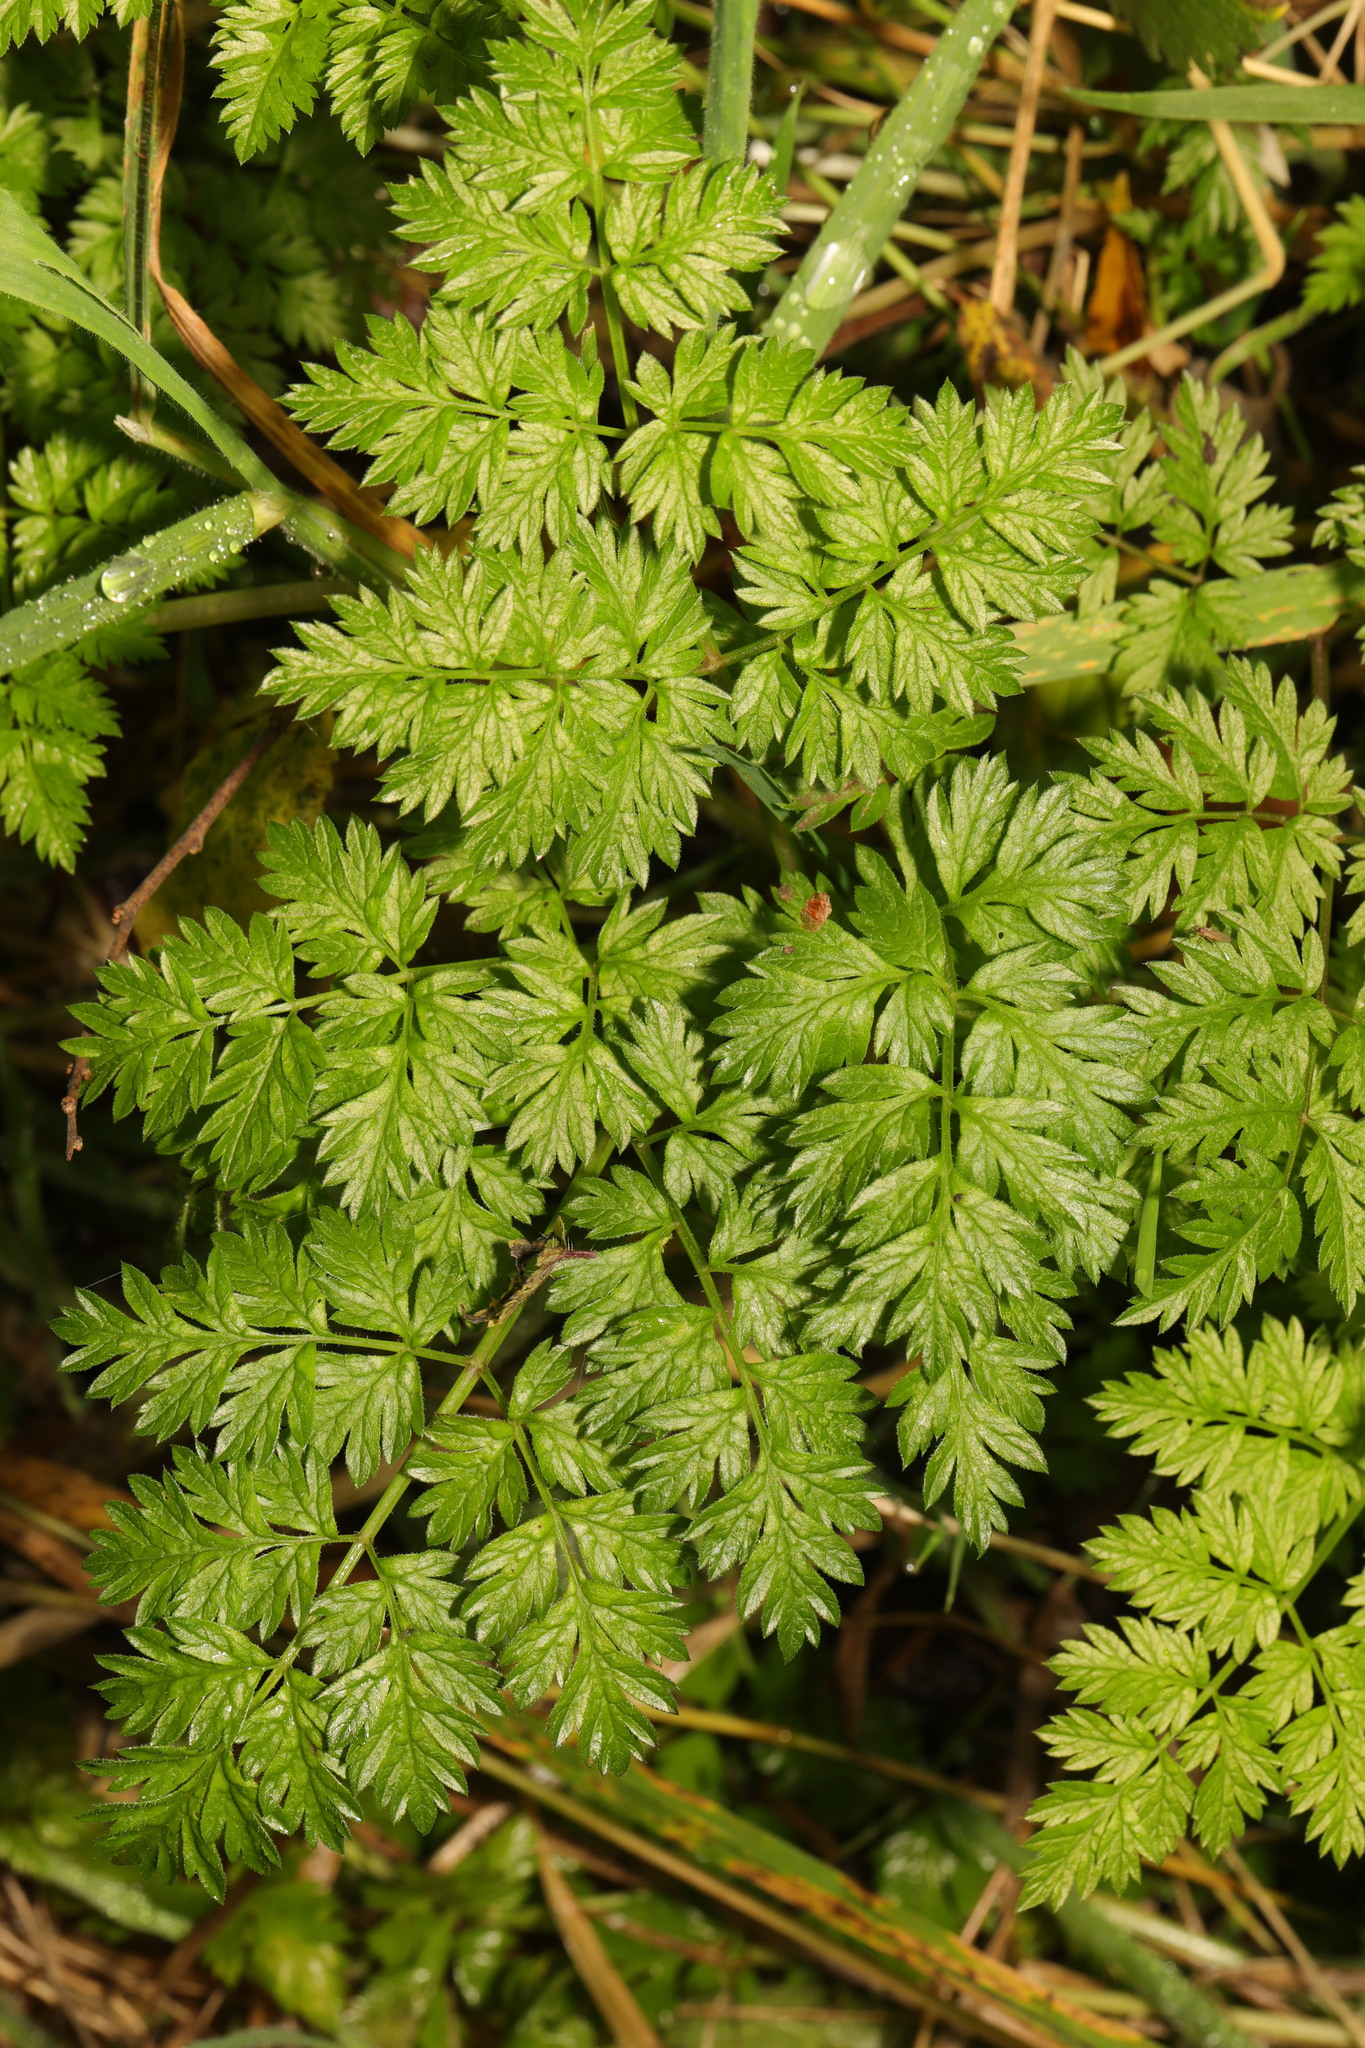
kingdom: Plantae
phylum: Tracheophyta
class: Magnoliopsida
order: Apiales
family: Apiaceae
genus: Anthriscus
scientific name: Anthriscus sylvestris
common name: Cow parsley
